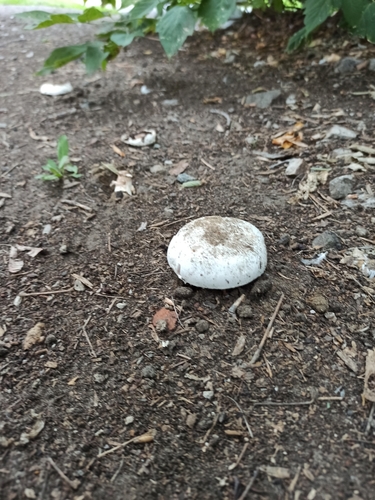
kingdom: Fungi
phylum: Basidiomycota
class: Agaricomycetes
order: Agaricales
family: Agaricaceae
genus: Agaricus
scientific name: Agaricus
